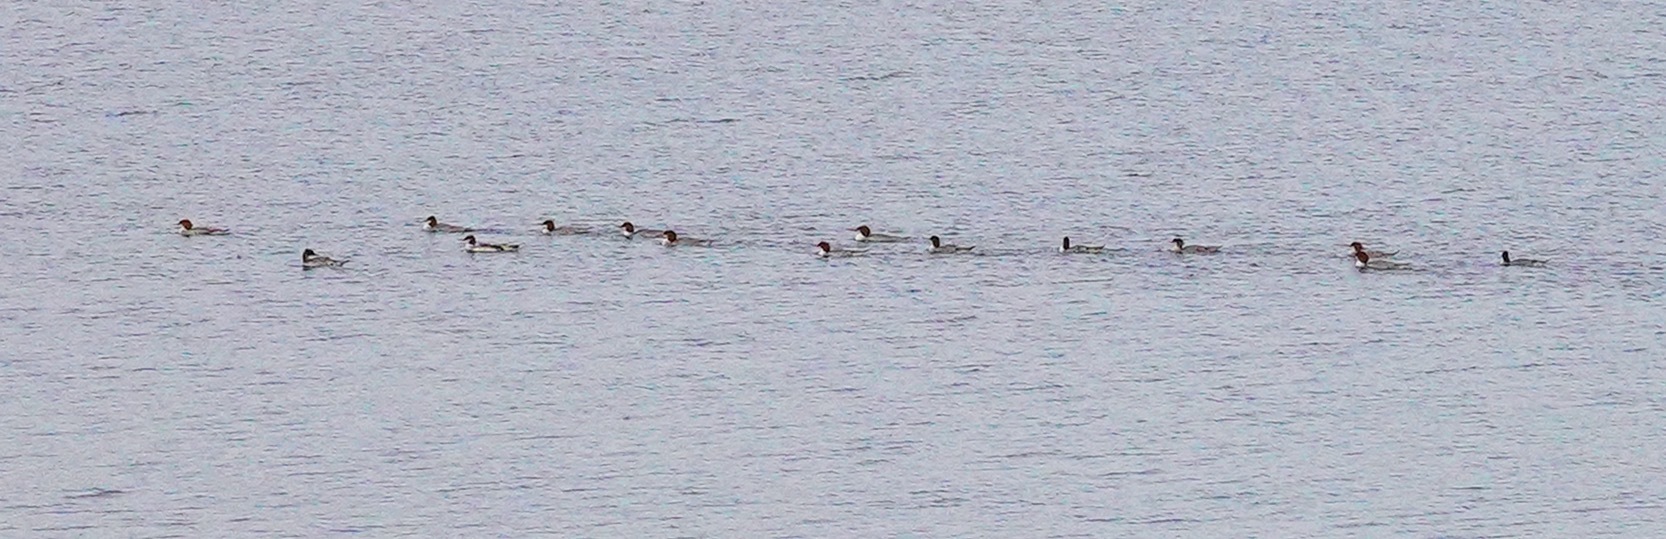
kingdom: Animalia
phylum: Chordata
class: Aves
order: Anseriformes
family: Anatidae
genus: Mergus
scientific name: Mergus merganser
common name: Common merganser
